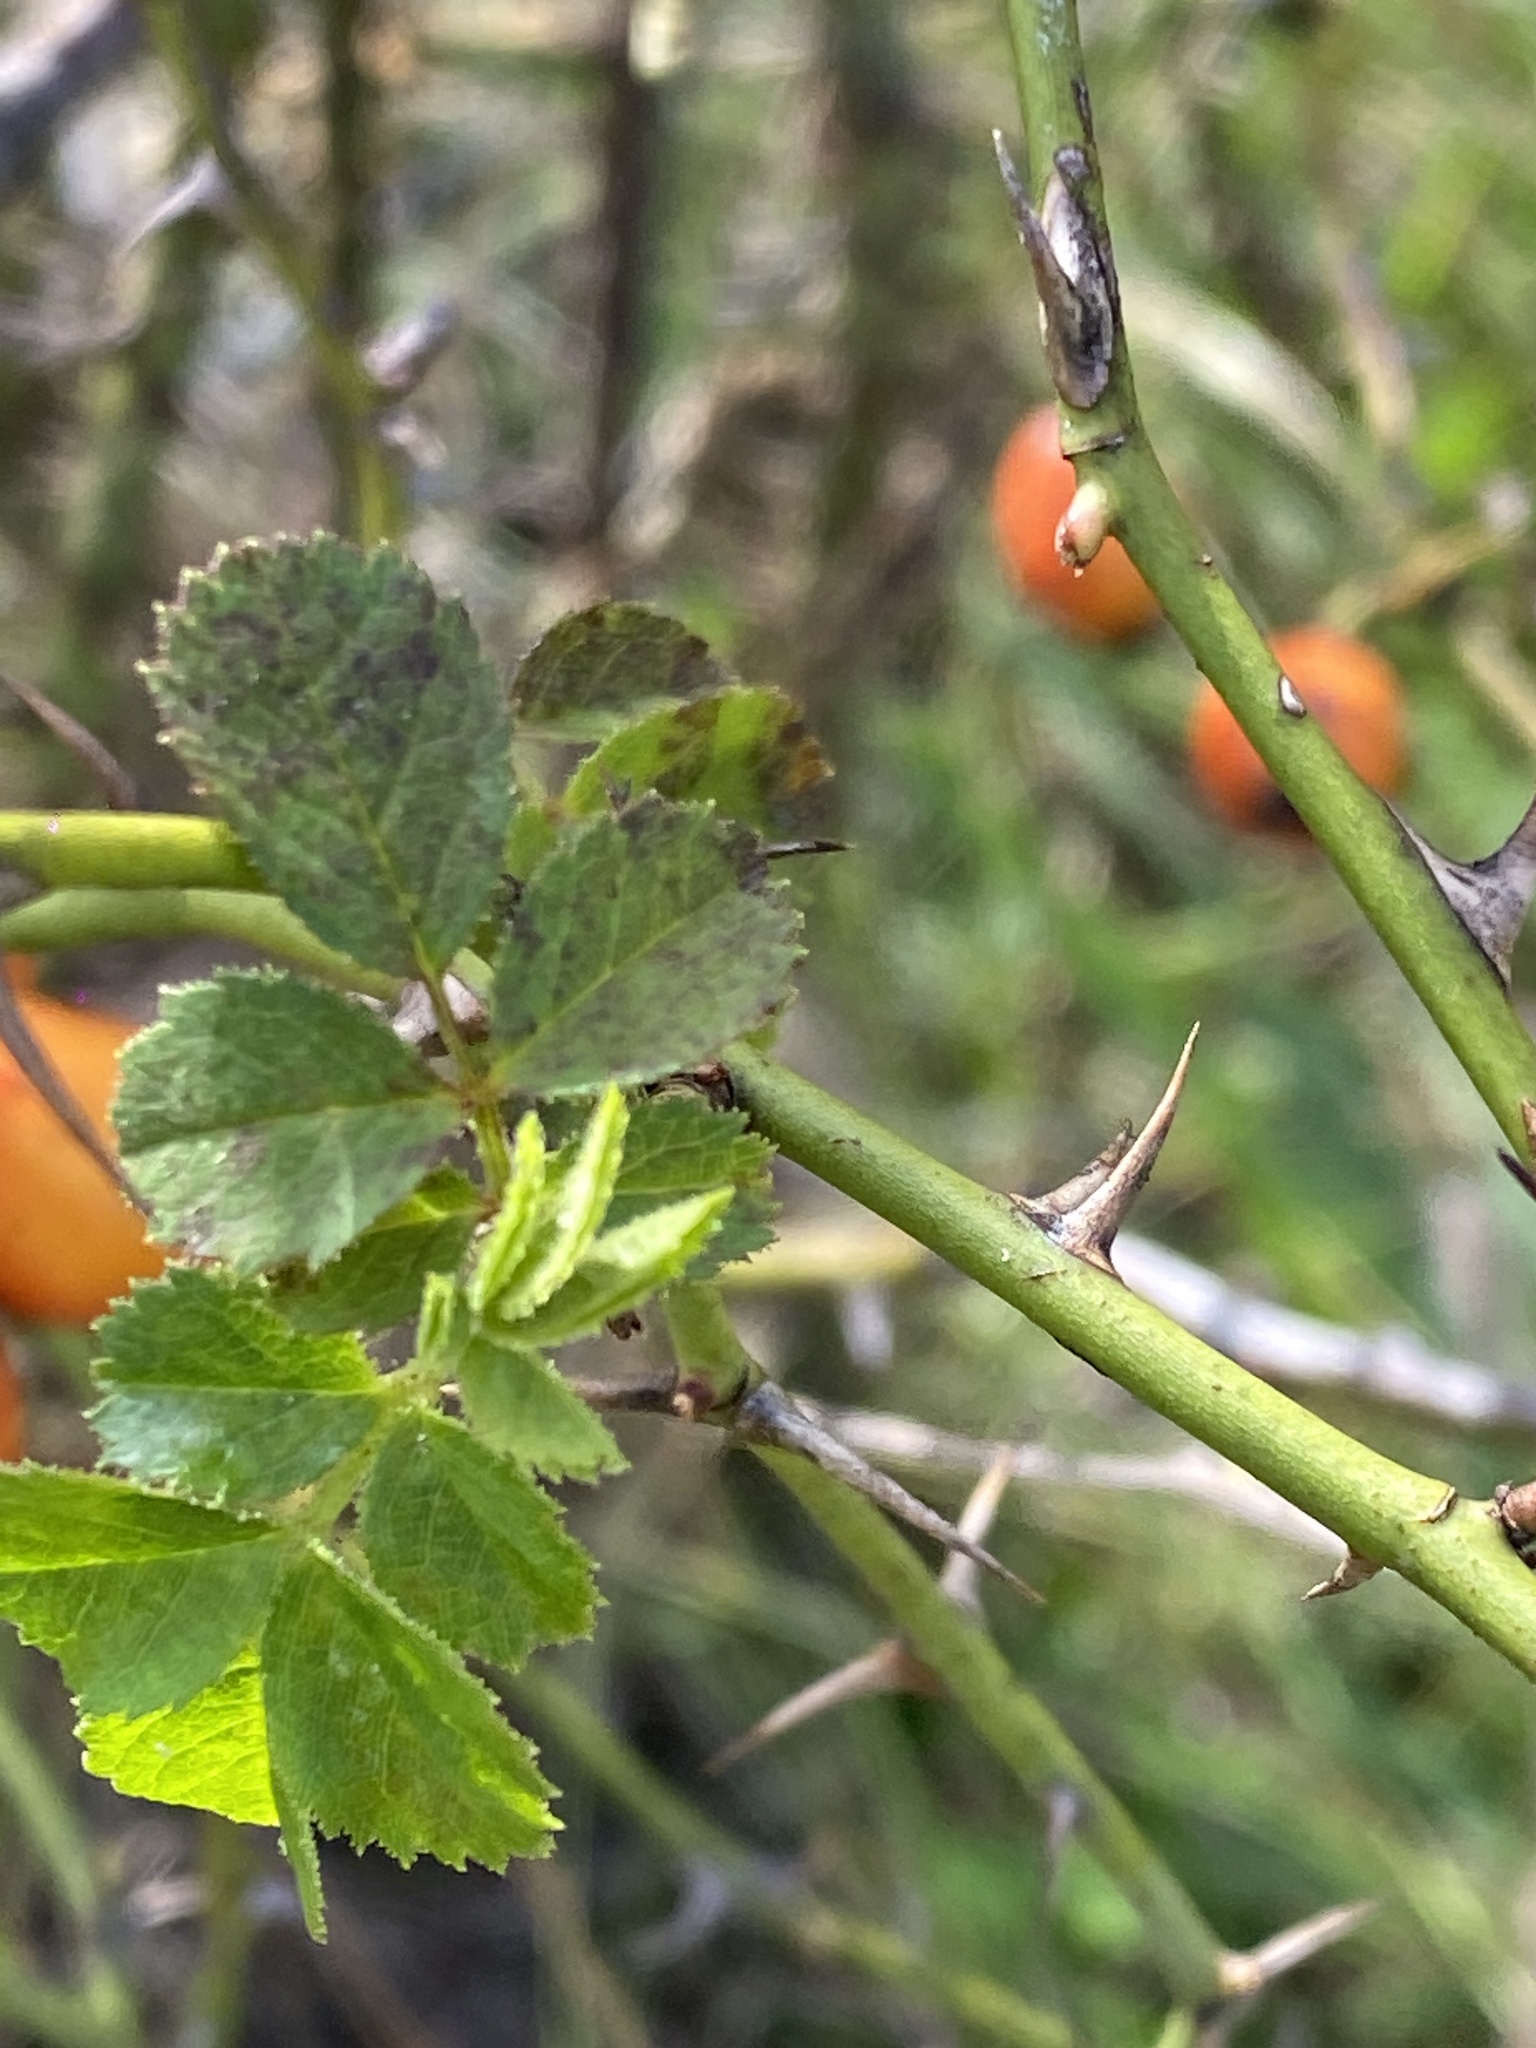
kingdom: Plantae
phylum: Tracheophyta
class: Magnoliopsida
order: Rosales
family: Rosaceae
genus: Rosa
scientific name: Rosa rubiginosa
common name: Sweet-briar
